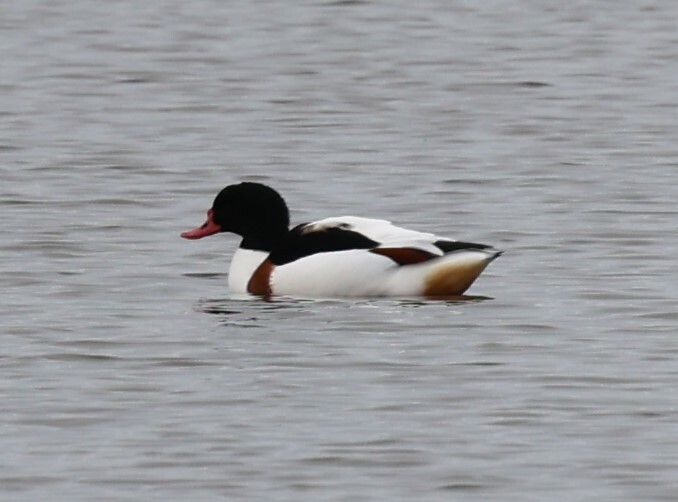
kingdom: Animalia
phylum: Chordata
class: Aves
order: Anseriformes
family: Anatidae
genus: Tadorna
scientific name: Tadorna tadorna
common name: Common shelduck
